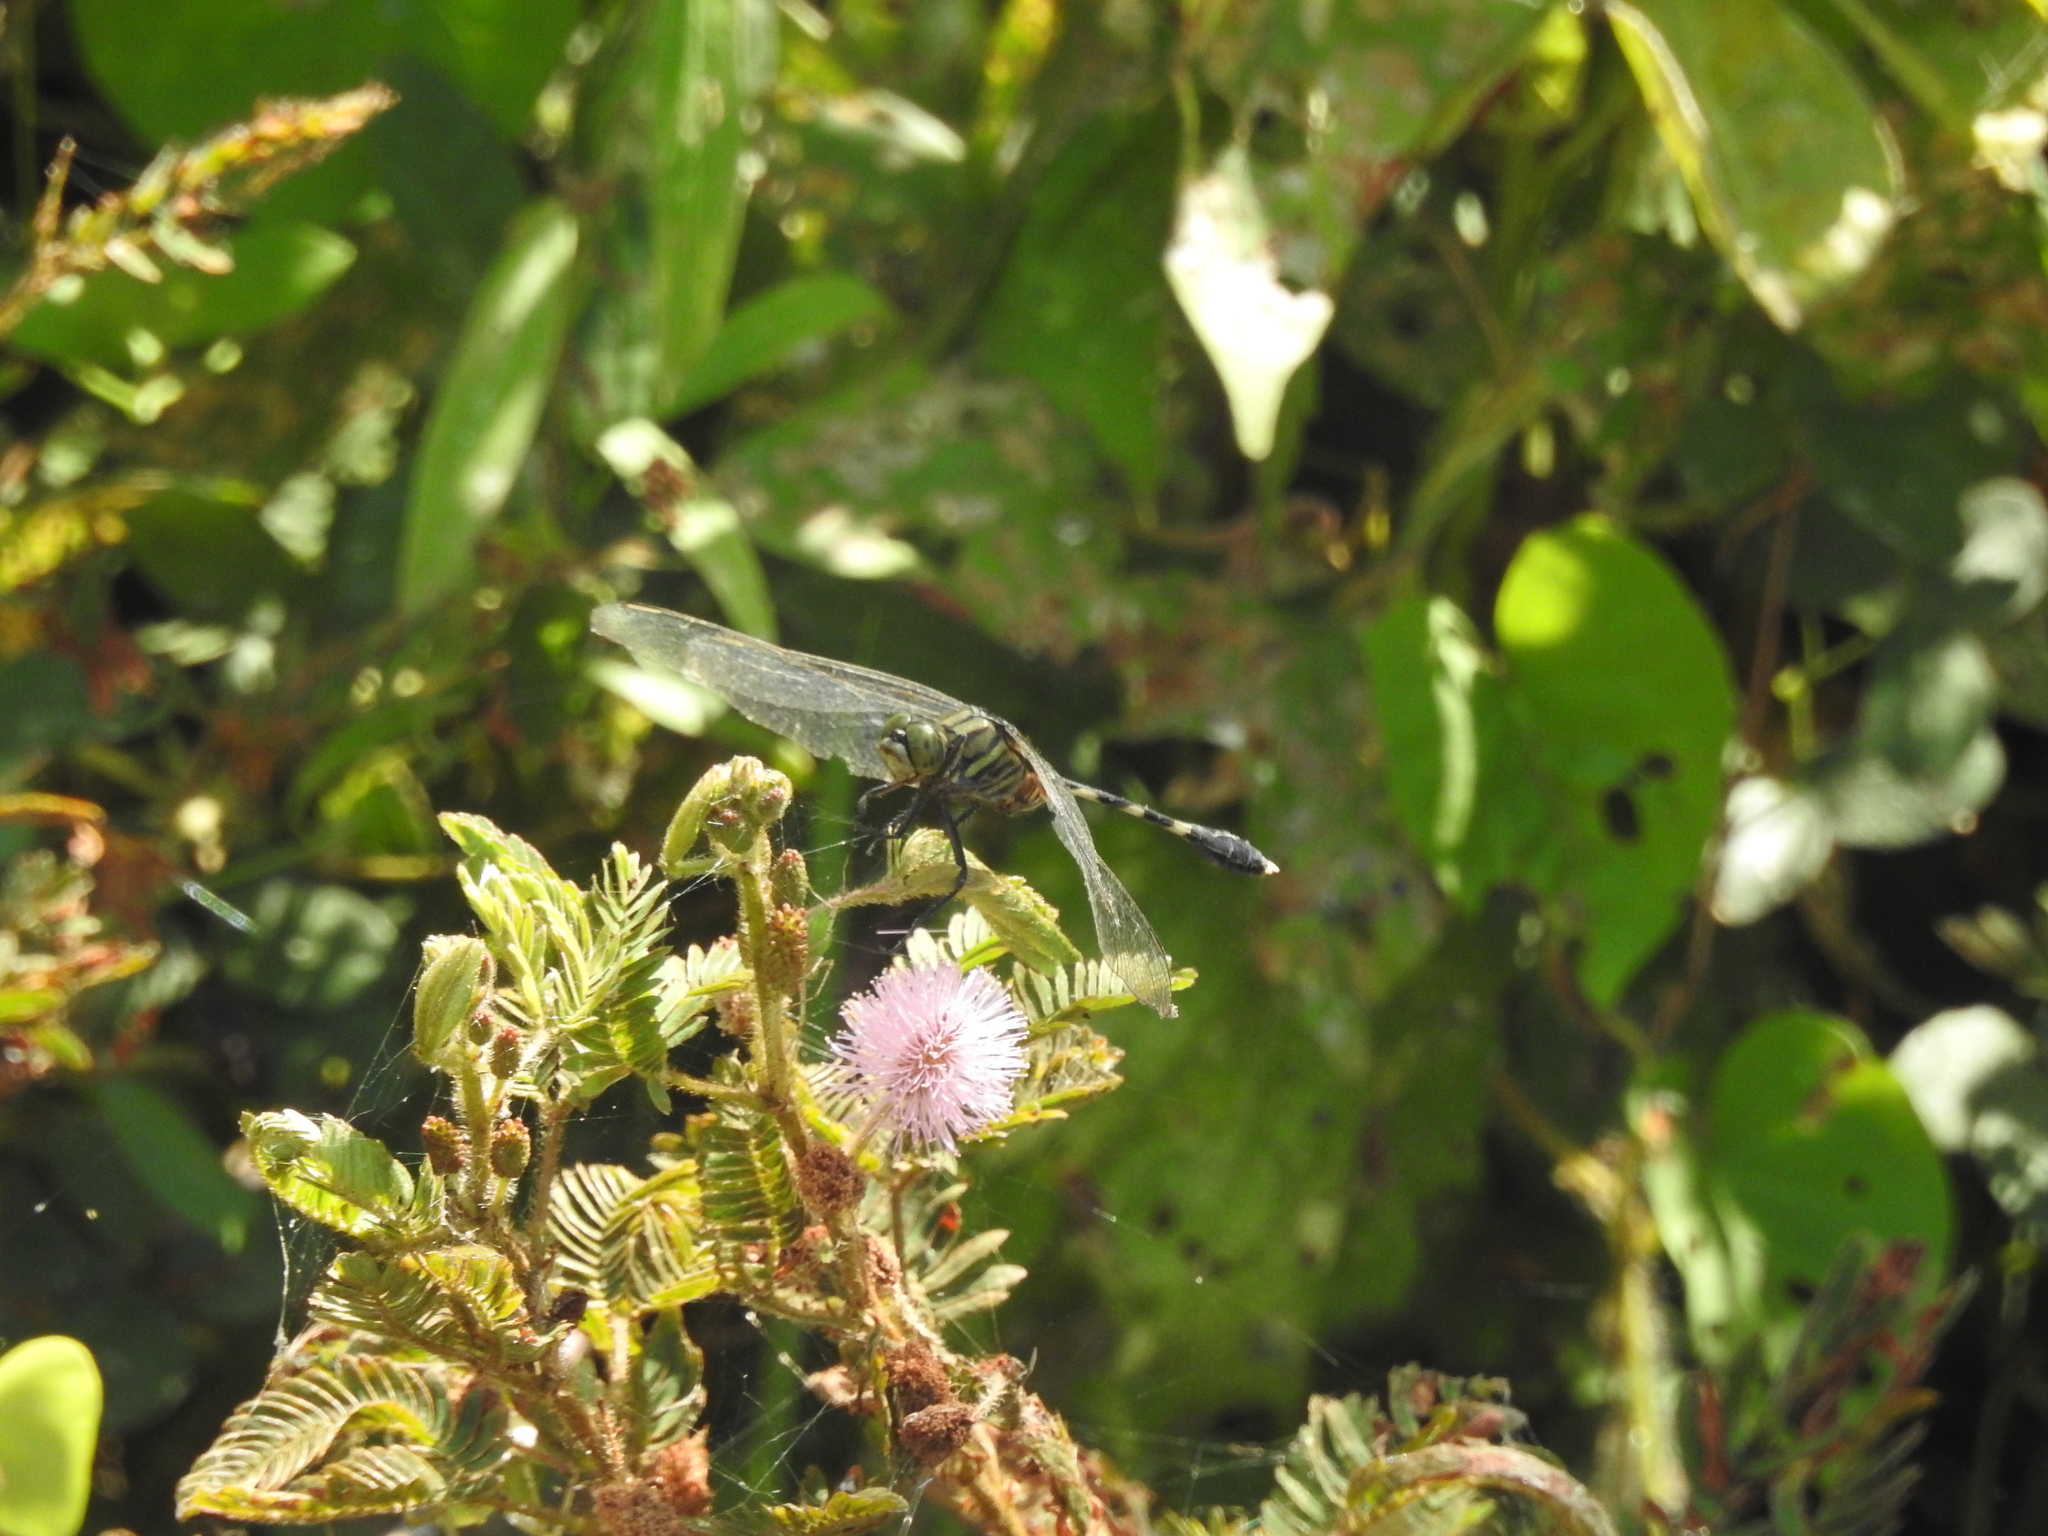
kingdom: Animalia
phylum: Arthropoda
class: Insecta
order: Odonata
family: Libellulidae
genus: Orthetrum
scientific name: Orthetrum sabina
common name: Slender skimmer
